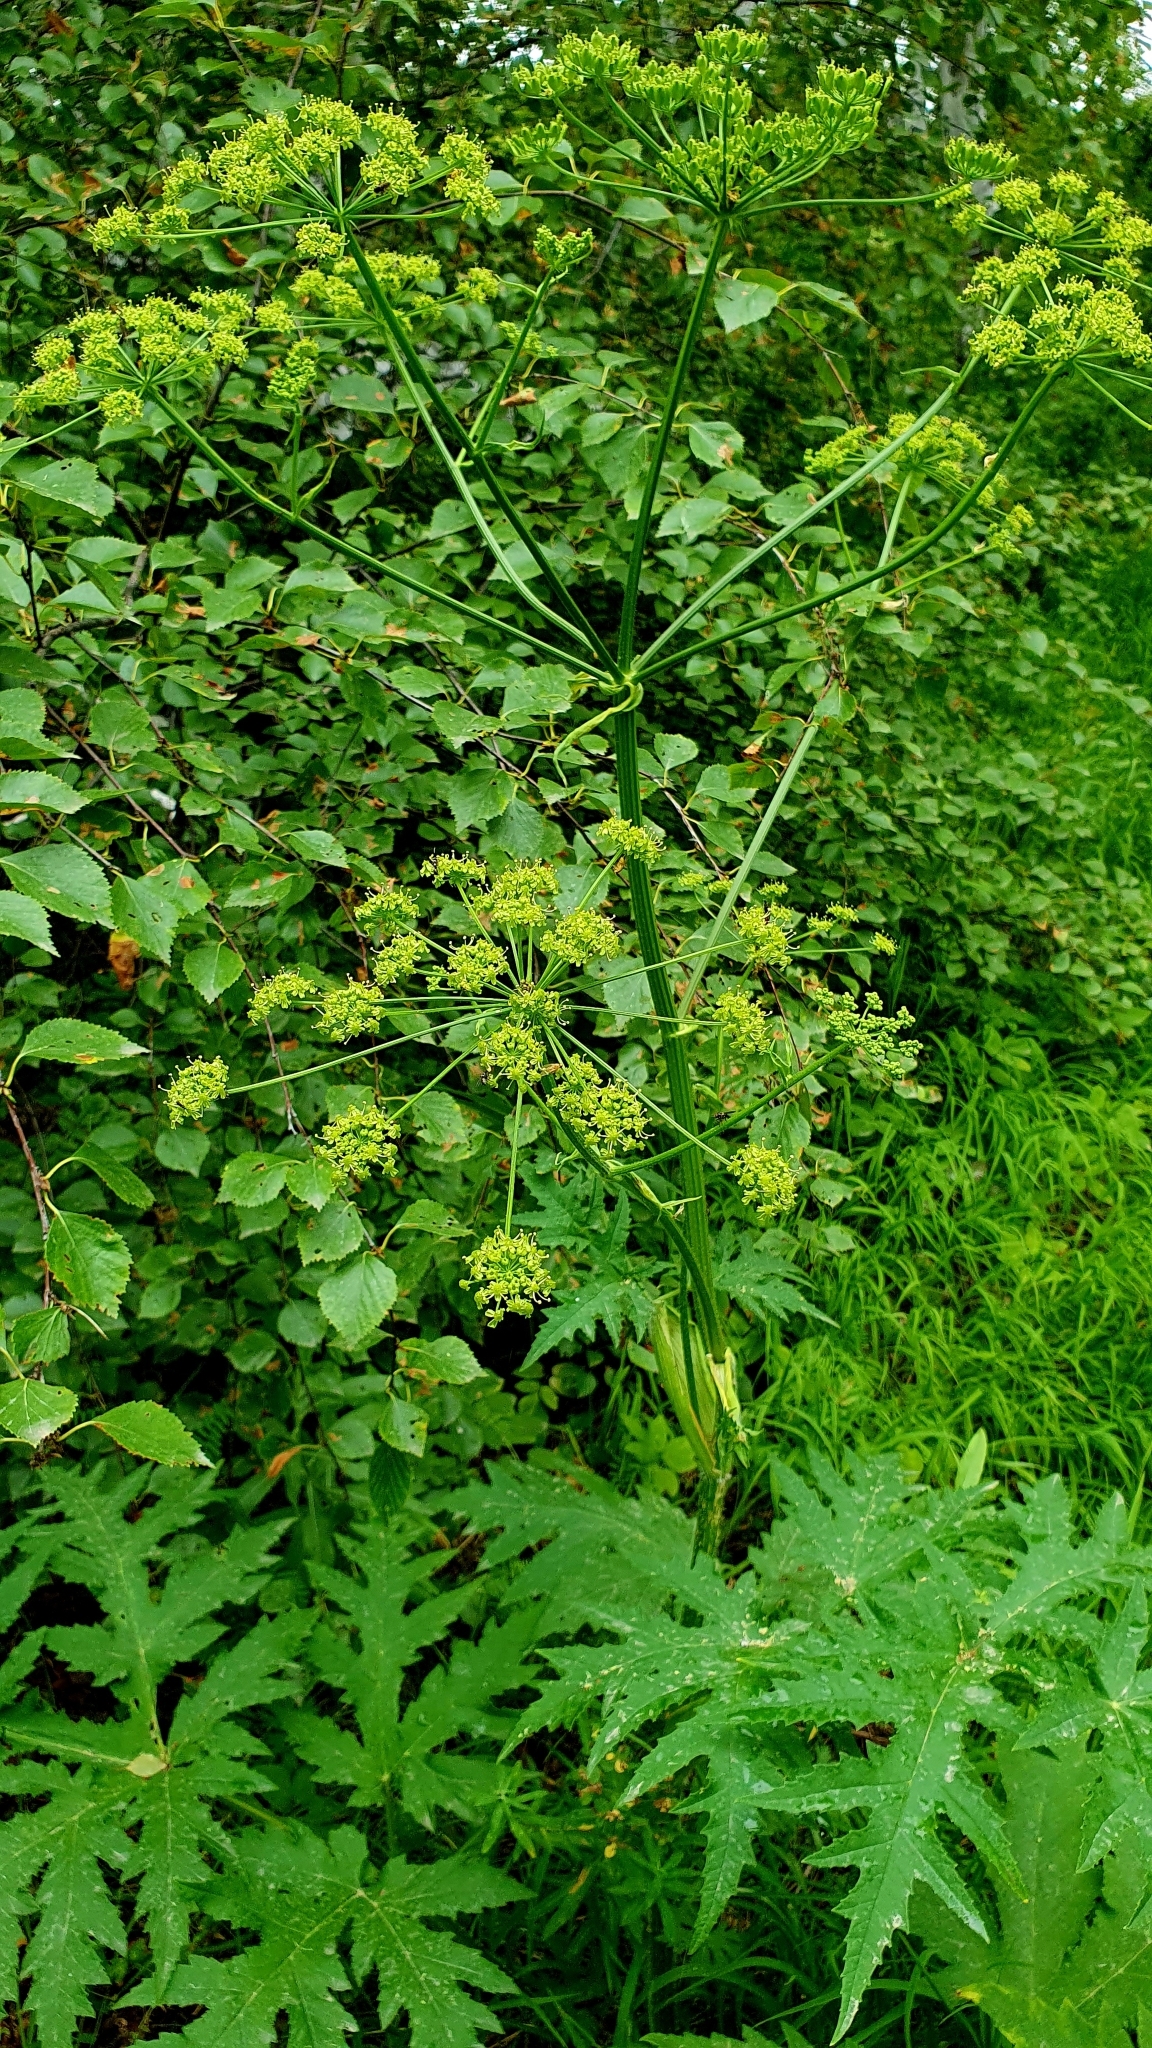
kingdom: Plantae
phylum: Tracheophyta
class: Magnoliopsida
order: Apiales
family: Apiaceae
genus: Heracleum
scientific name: Heracleum sphondylium
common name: Hogweed
